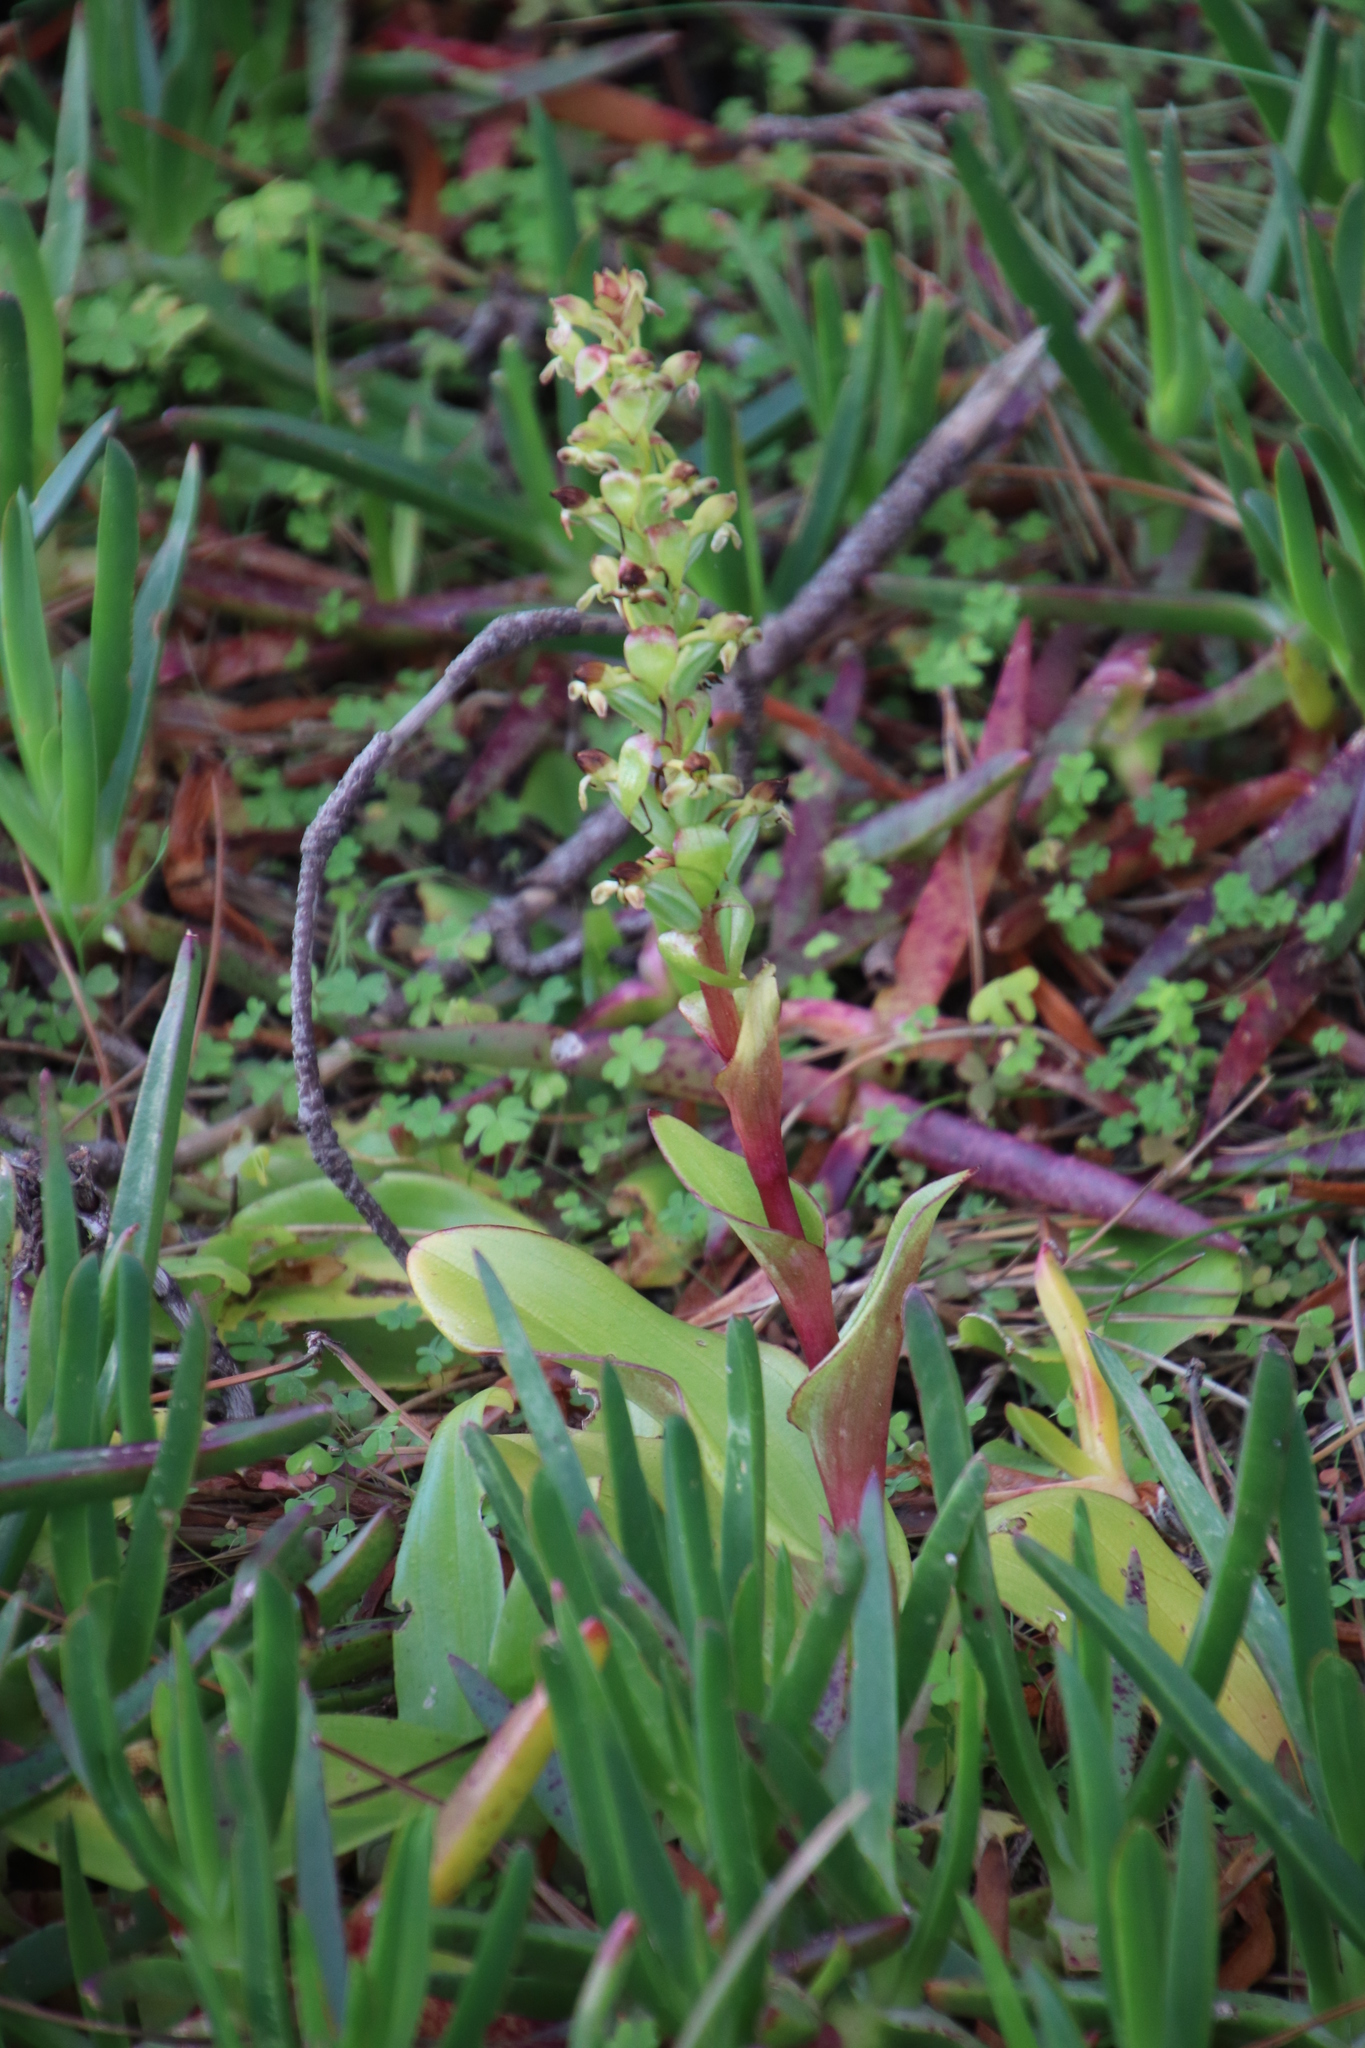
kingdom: Plantae
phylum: Tracheophyta
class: Liliopsida
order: Asparagales
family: Orchidaceae
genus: Satyrium
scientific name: Satyrium odorum
